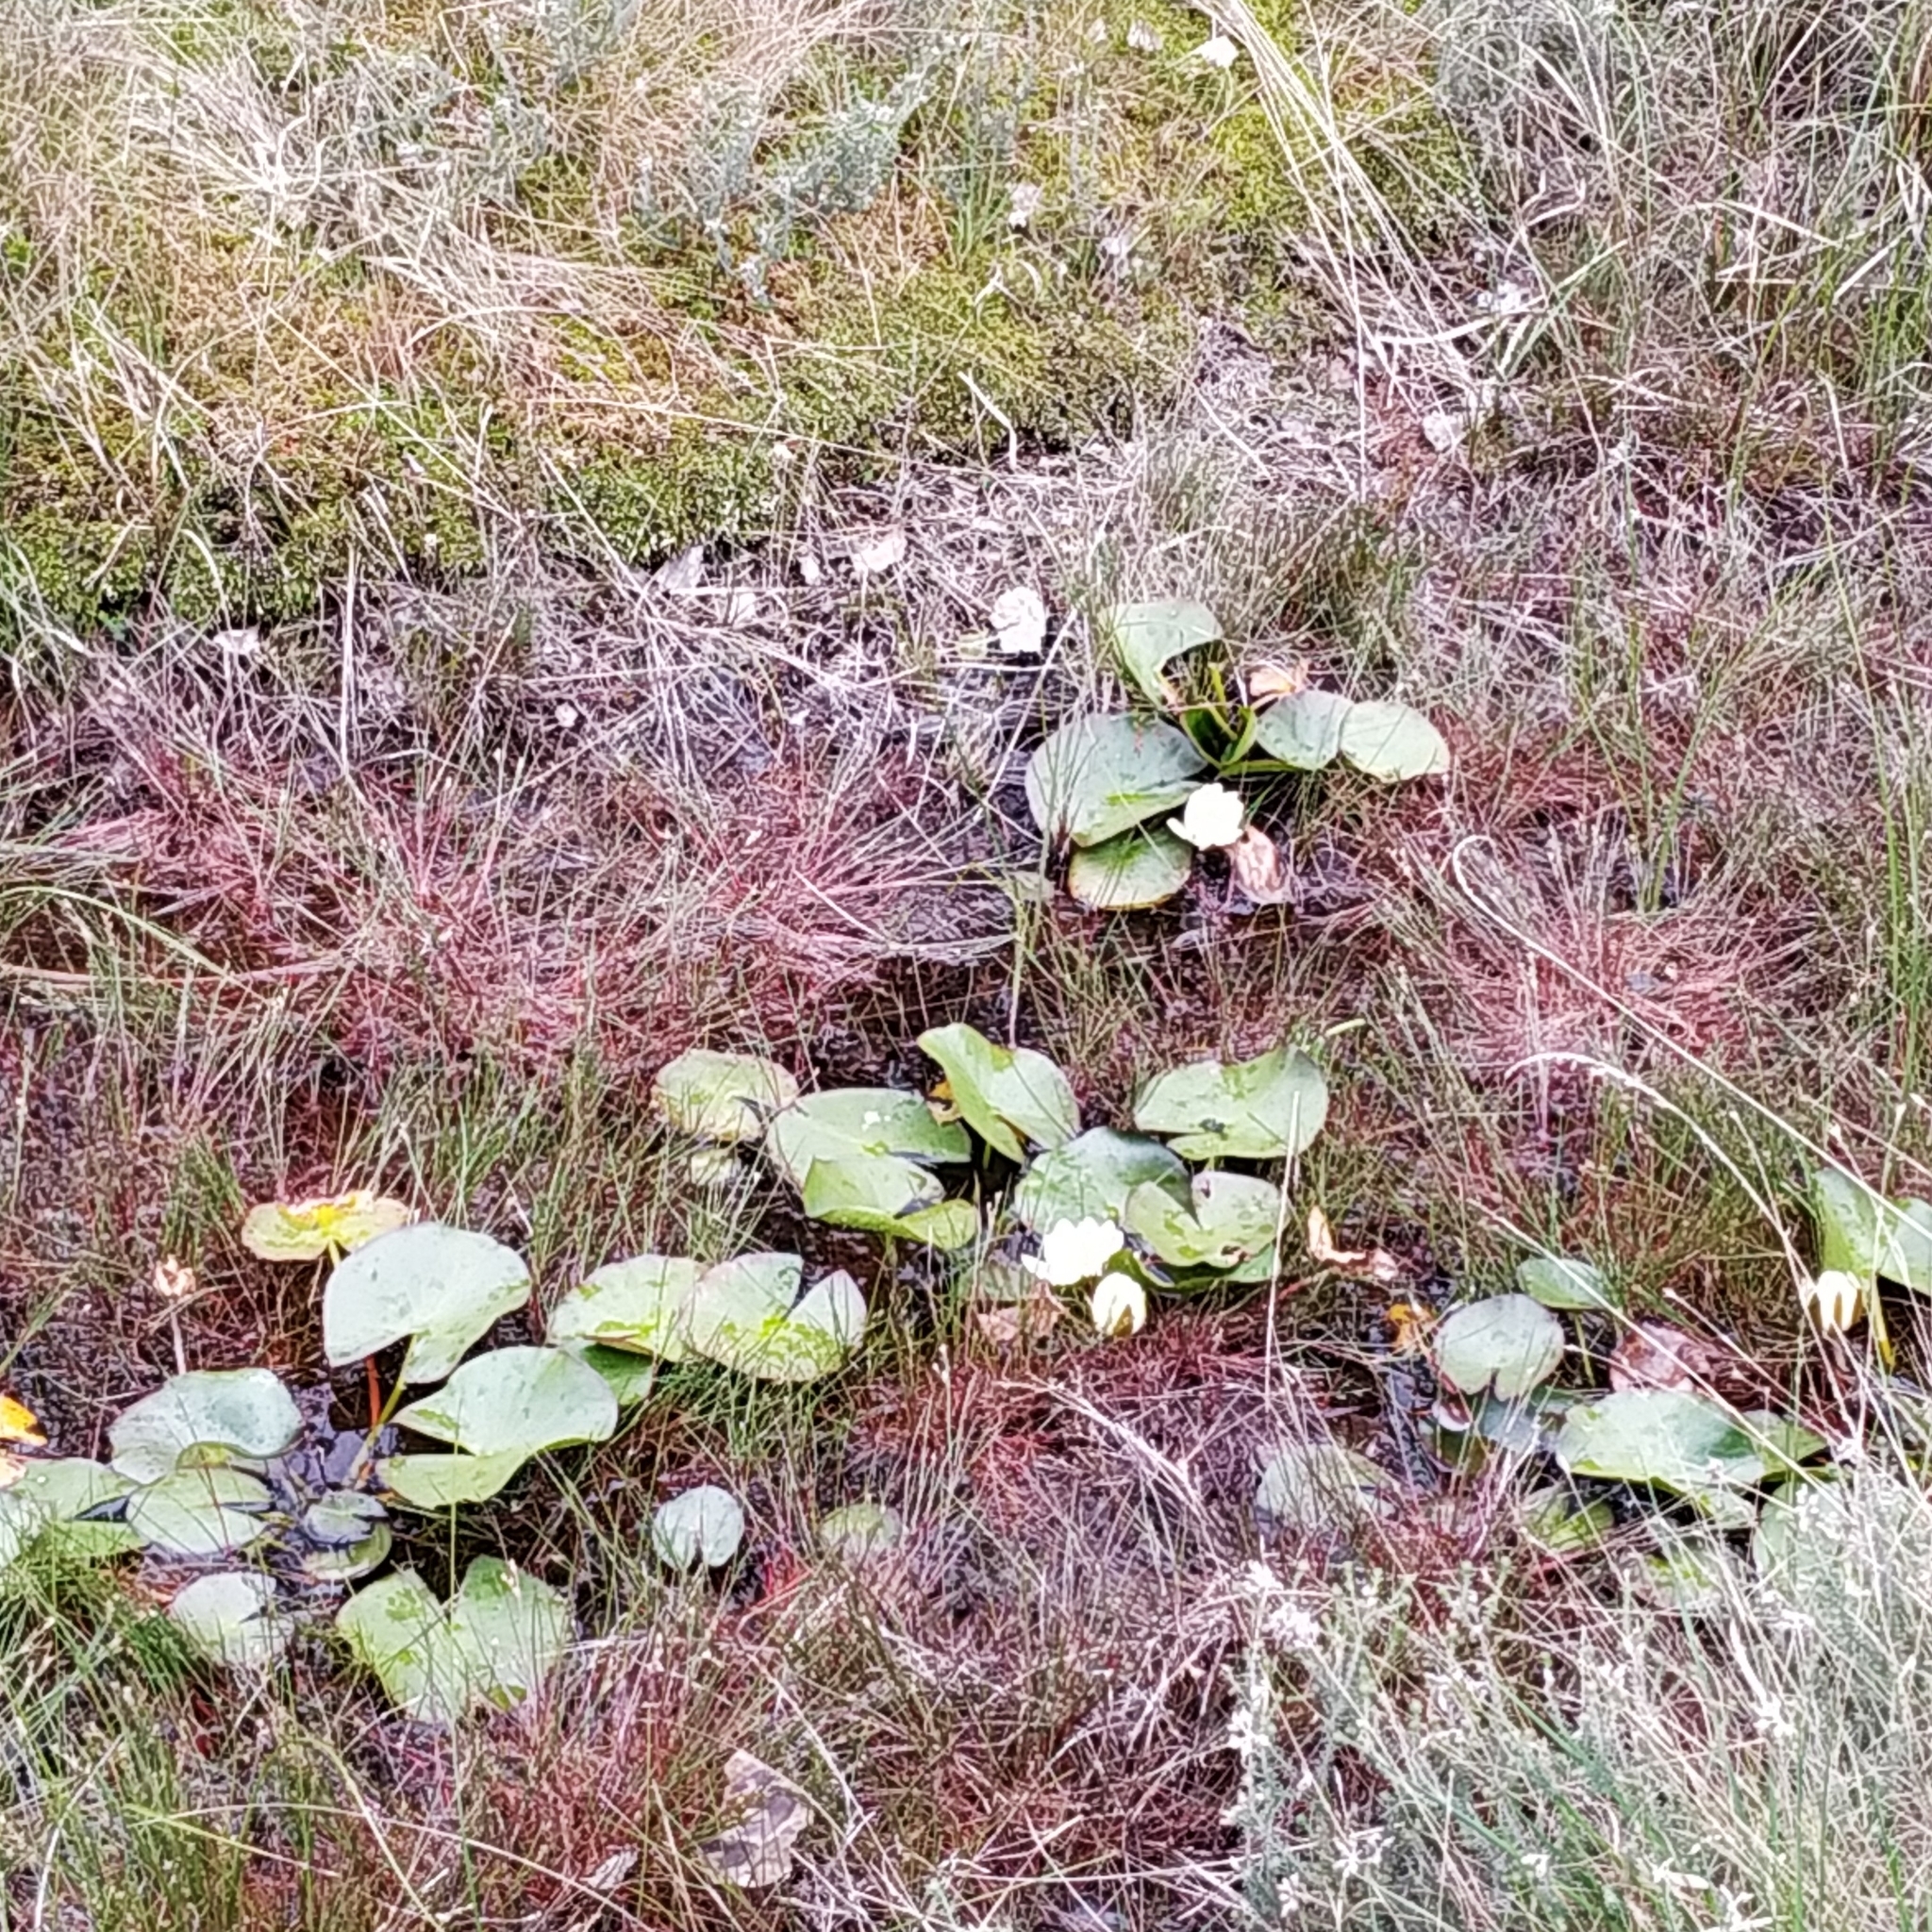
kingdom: Plantae
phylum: Tracheophyta
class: Magnoliopsida
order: Nymphaeales
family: Nymphaeaceae
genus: Nymphaea
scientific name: Nymphaea alba
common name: White water-lily
